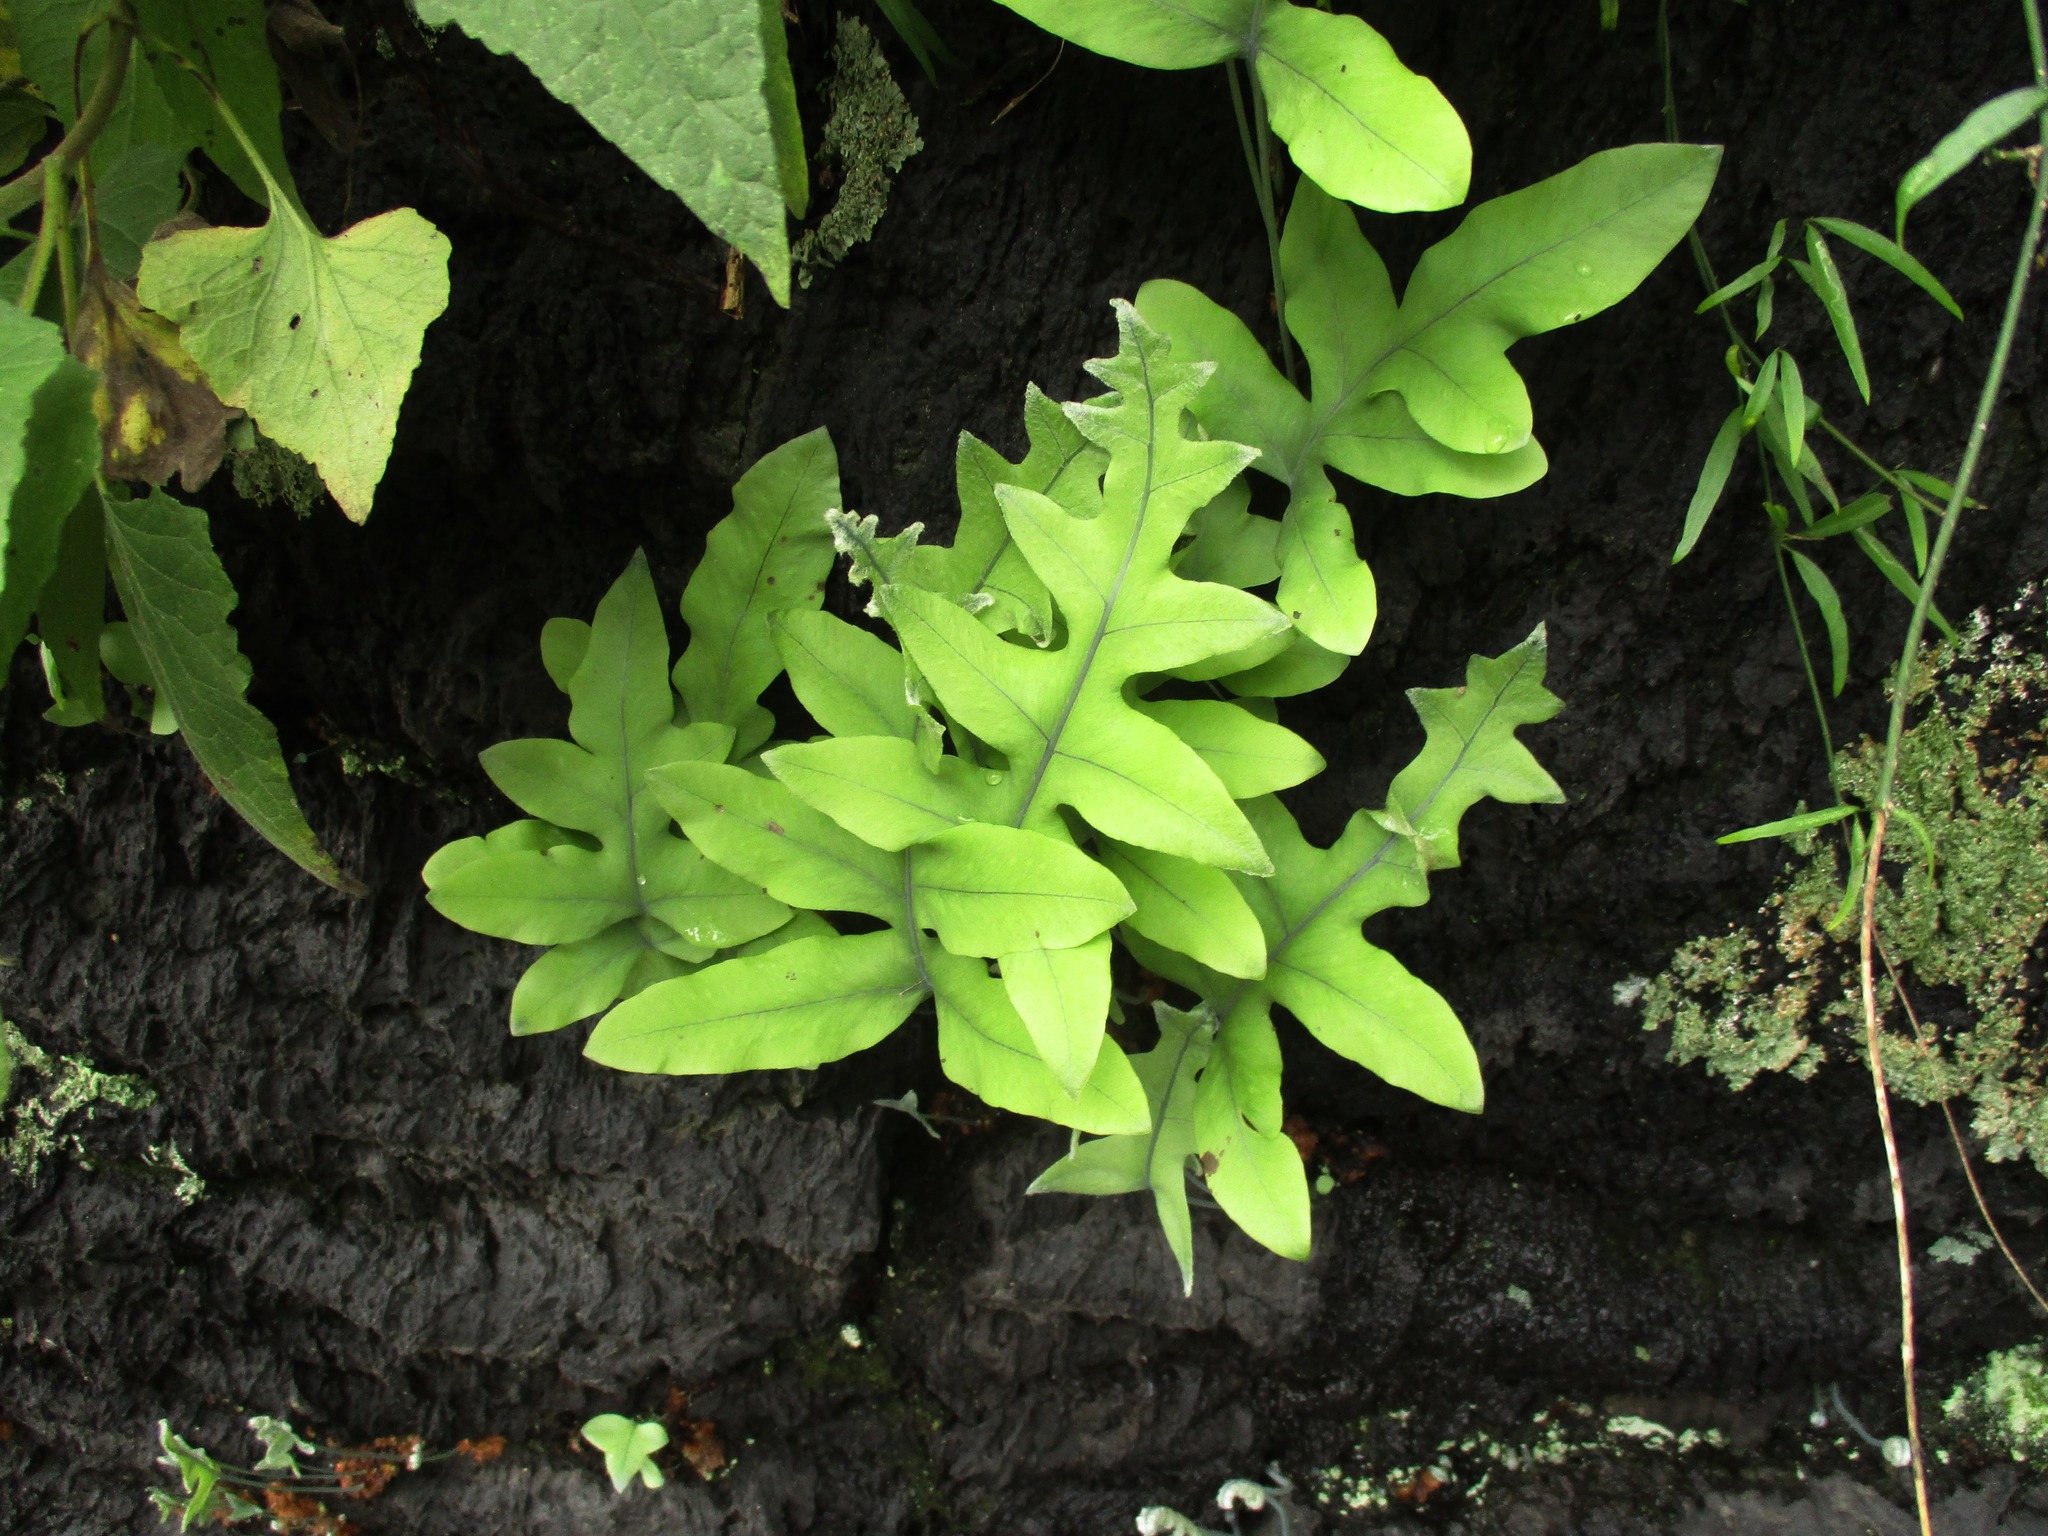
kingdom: Plantae
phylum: Tracheophyta
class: Polypodiopsida
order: Polypodiales
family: Polypodiaceae
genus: Phlebodium
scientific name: Phlebodium pseudoaureum
